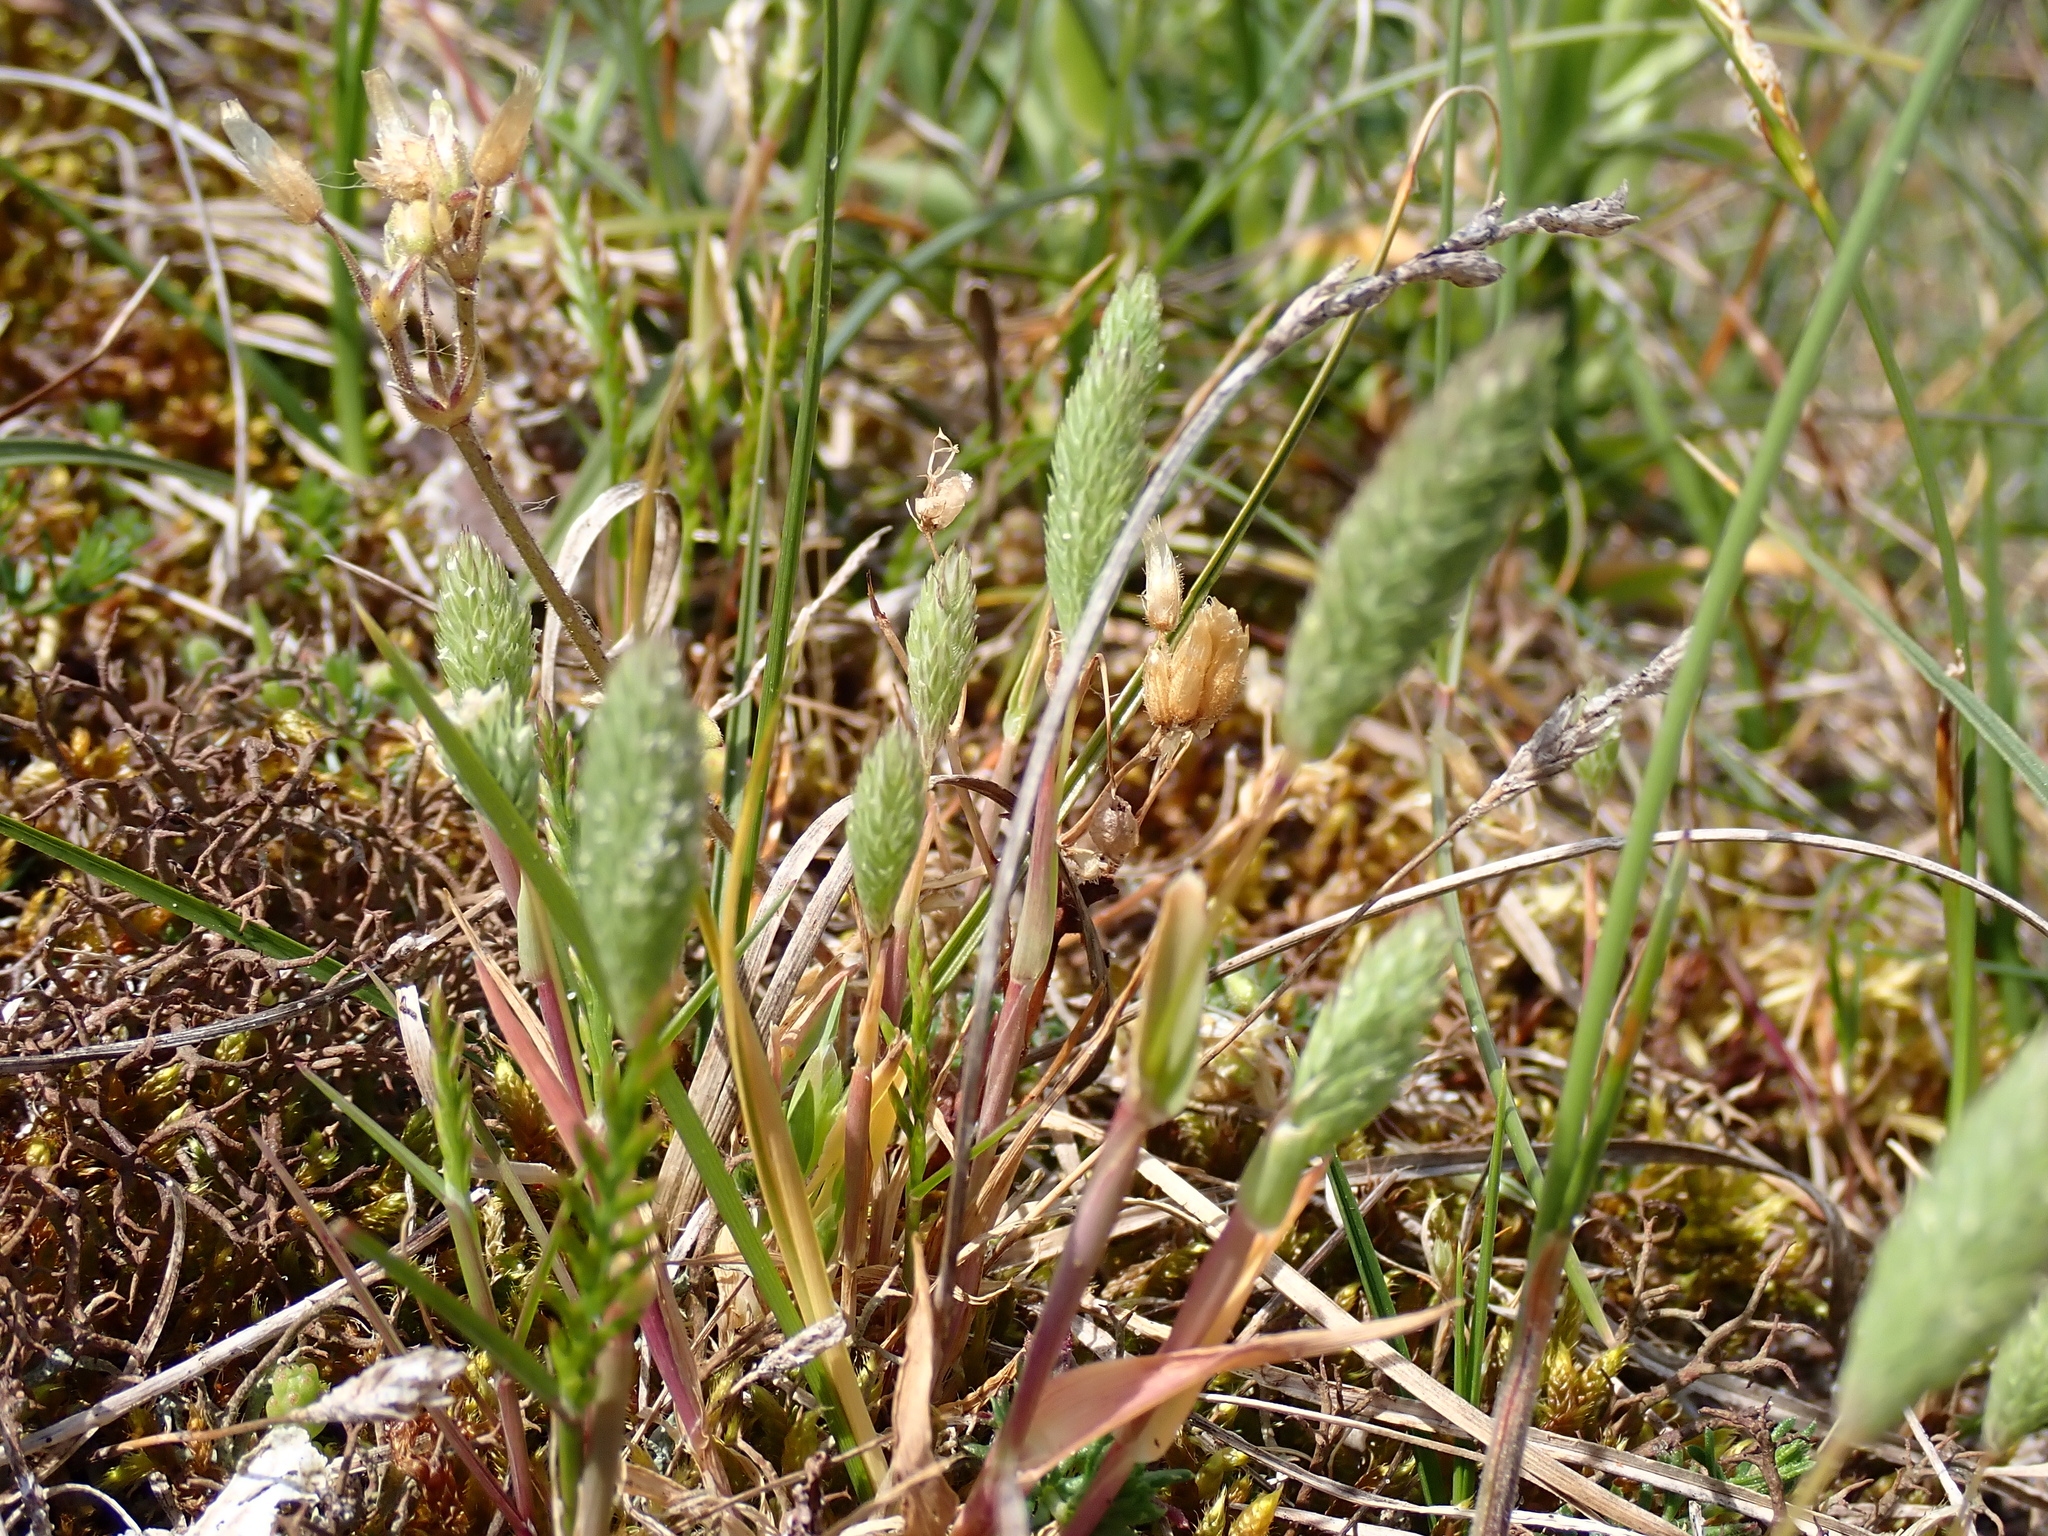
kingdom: Plantae
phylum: Tracheophyta
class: Liliopsida
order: Poales
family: Poaceae
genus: Phleum
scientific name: Phleum arenarium
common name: Sand cat's-tail
